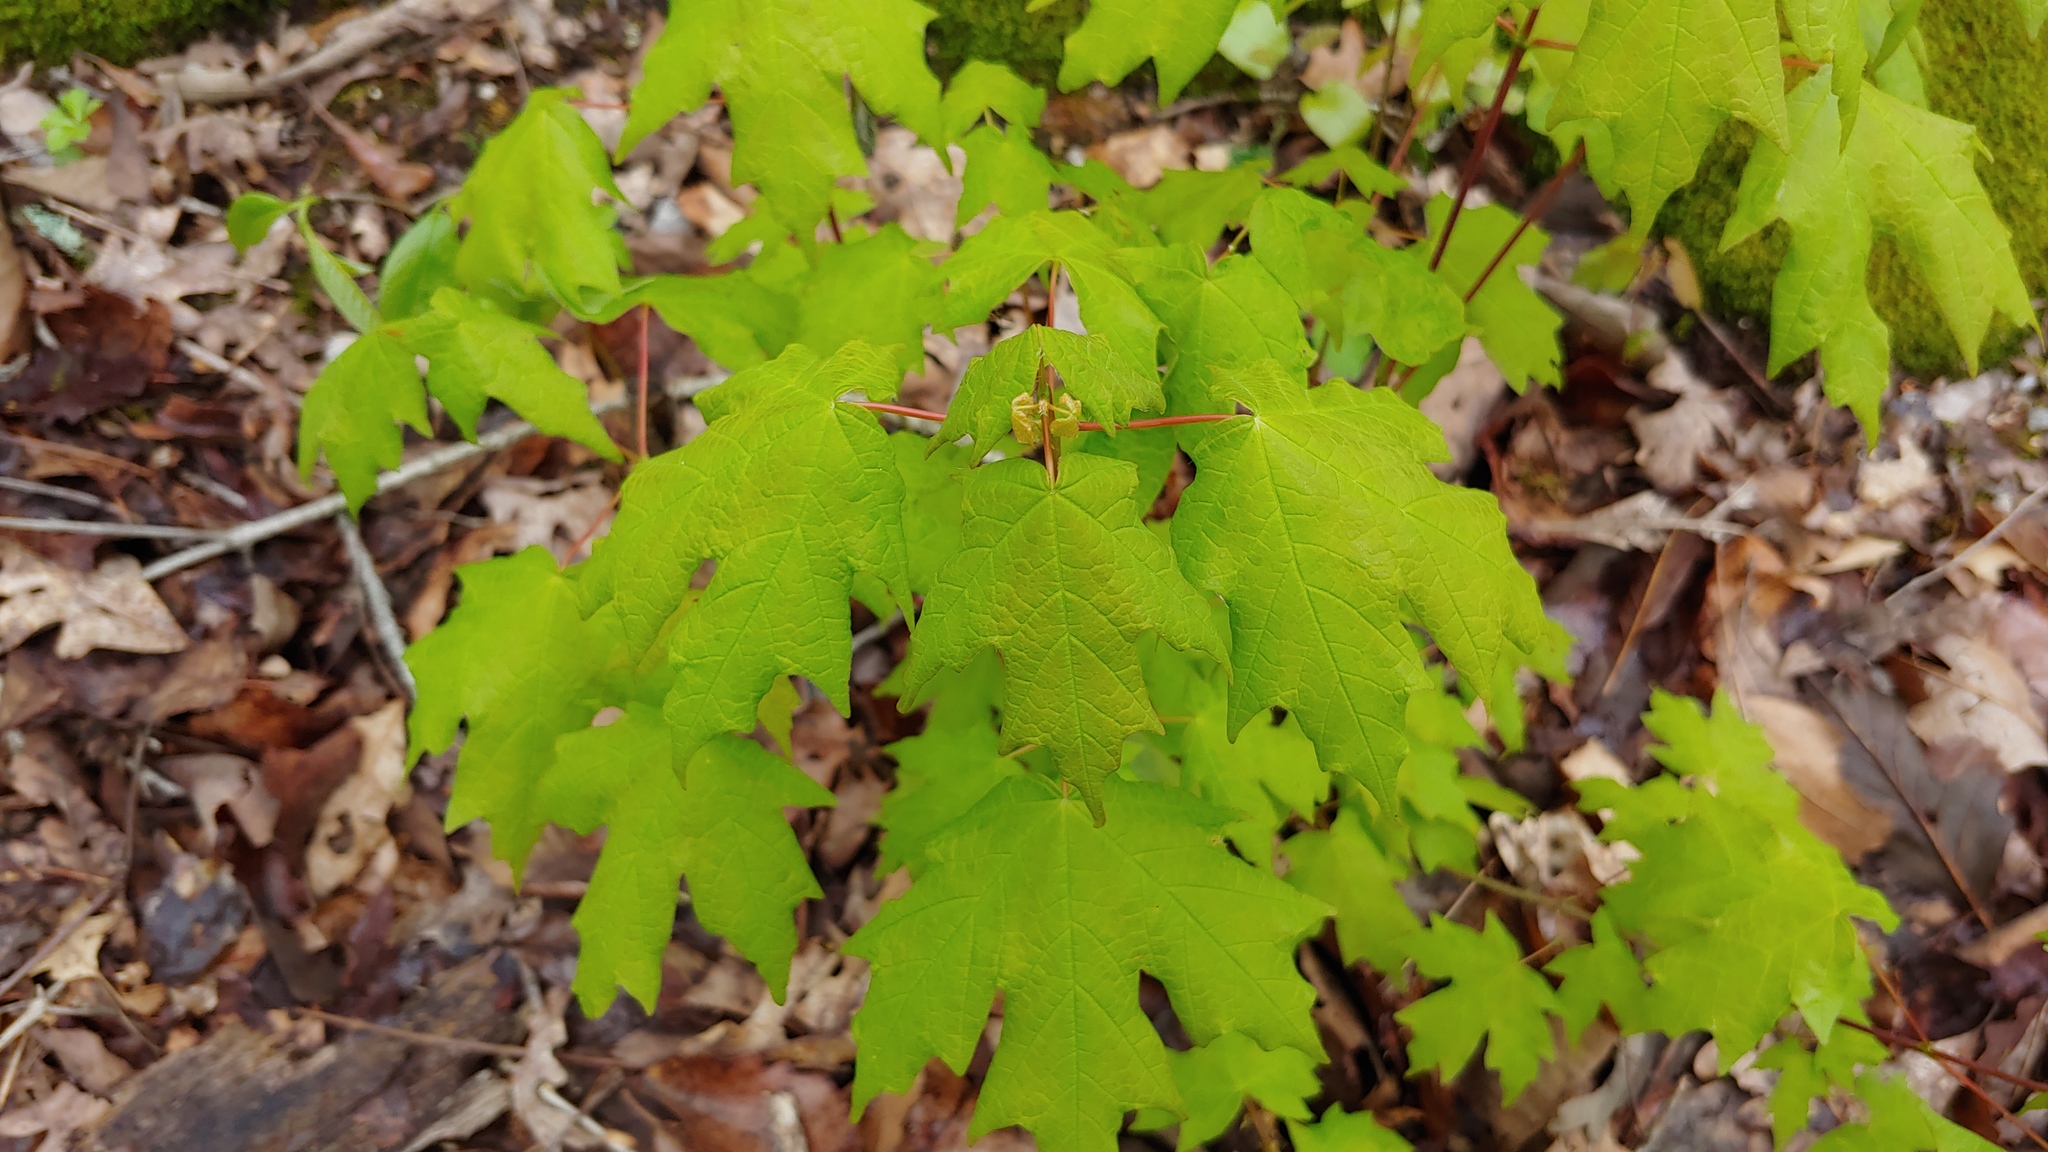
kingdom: Plantae
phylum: Tracheophyta
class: Magnoliopsida
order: Sapindales
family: Sapindaceae
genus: Acer
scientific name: Acer saccharum
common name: Sugar maple
